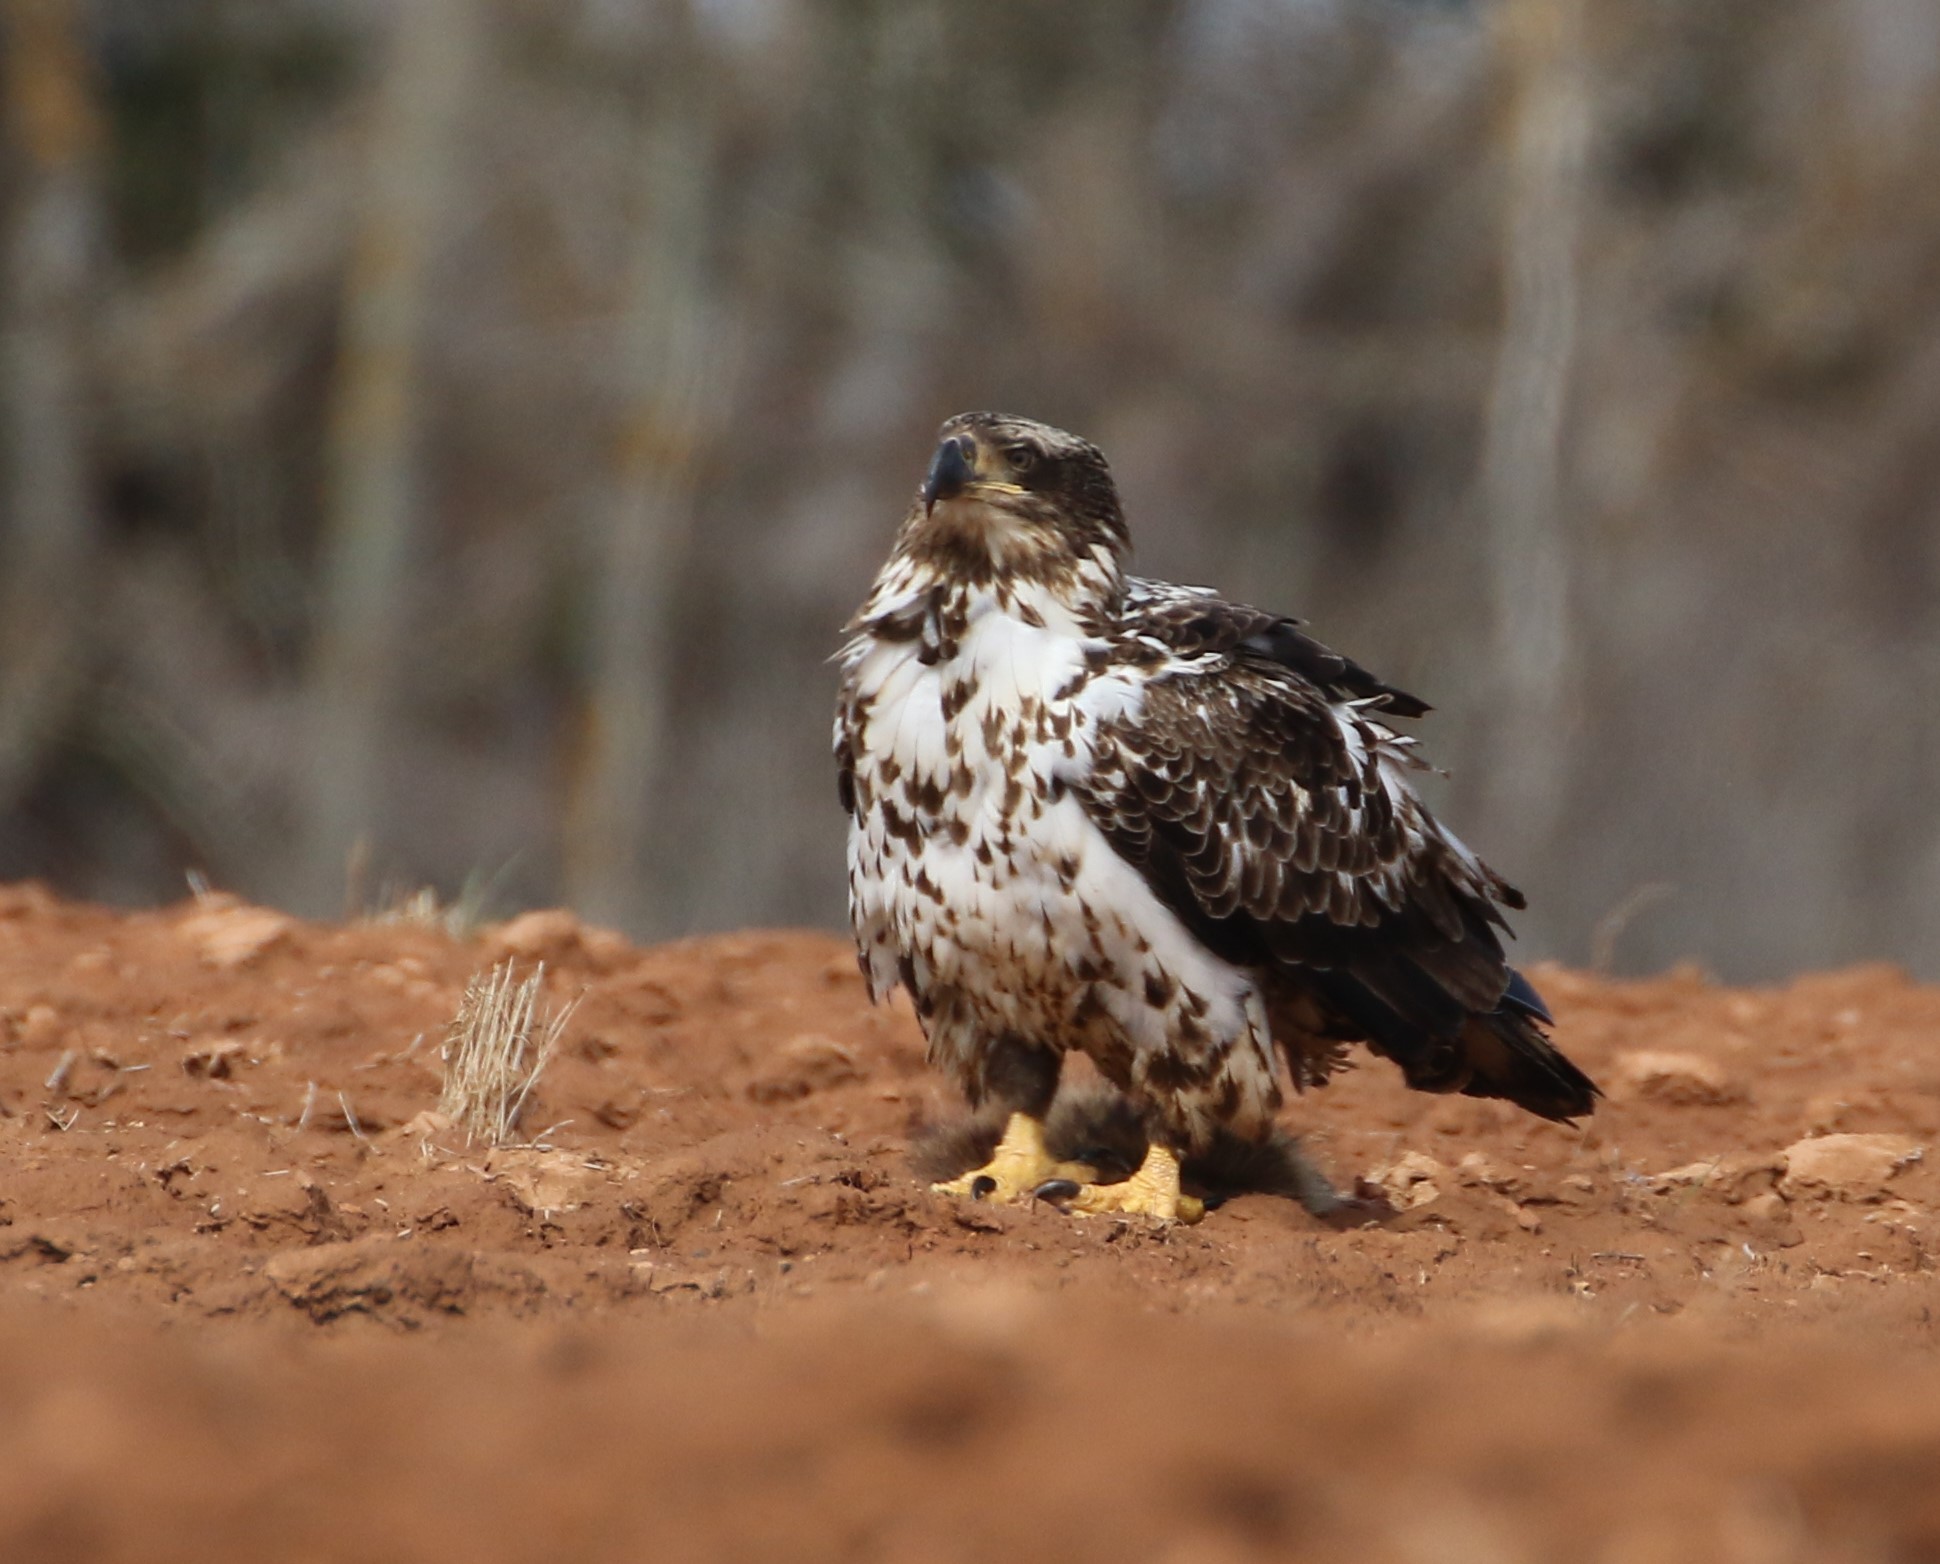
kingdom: Animalia
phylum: Chordata
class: Aves
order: Accipitriformes
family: Accipitridae
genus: Haliaeetus
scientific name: Haliaeetus leucocephalus
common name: Bald eagle
